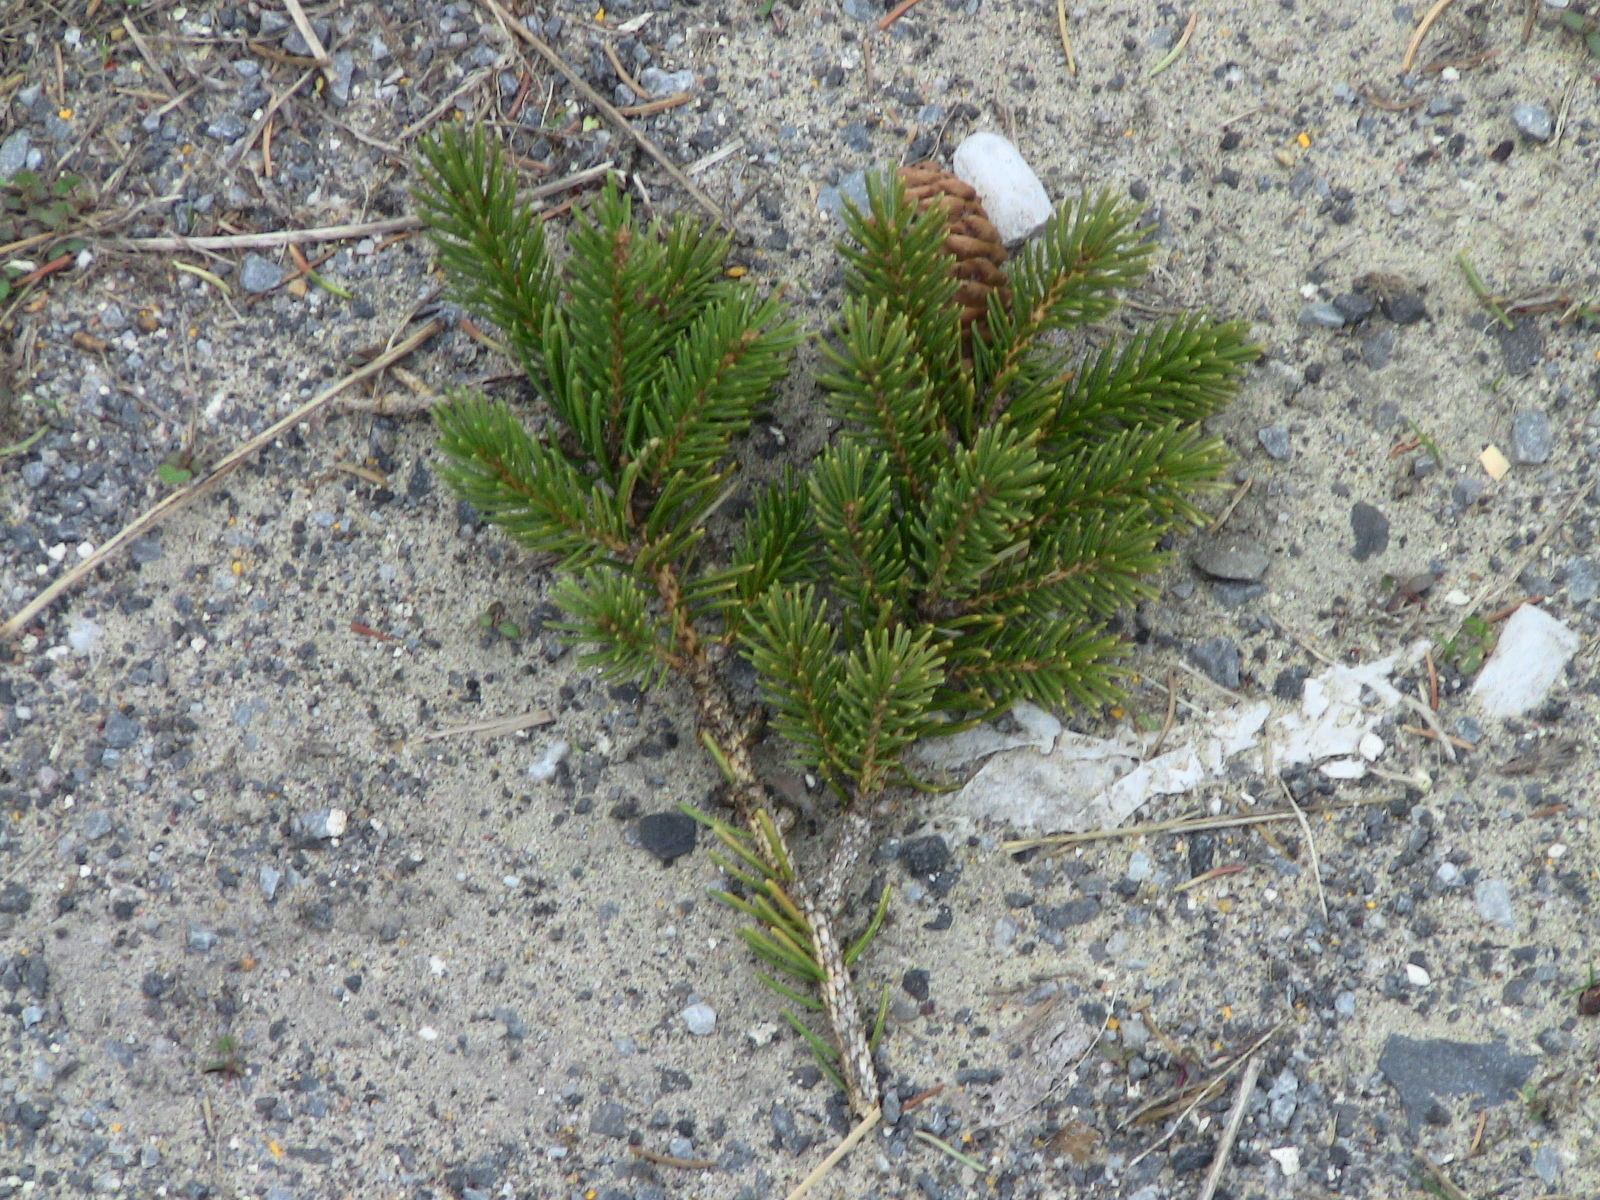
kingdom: Plantae
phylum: Tracheophyta
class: Pinopsida
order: Pinales
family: Pinaceae
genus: Picea
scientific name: Picea glauca
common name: White spruce
